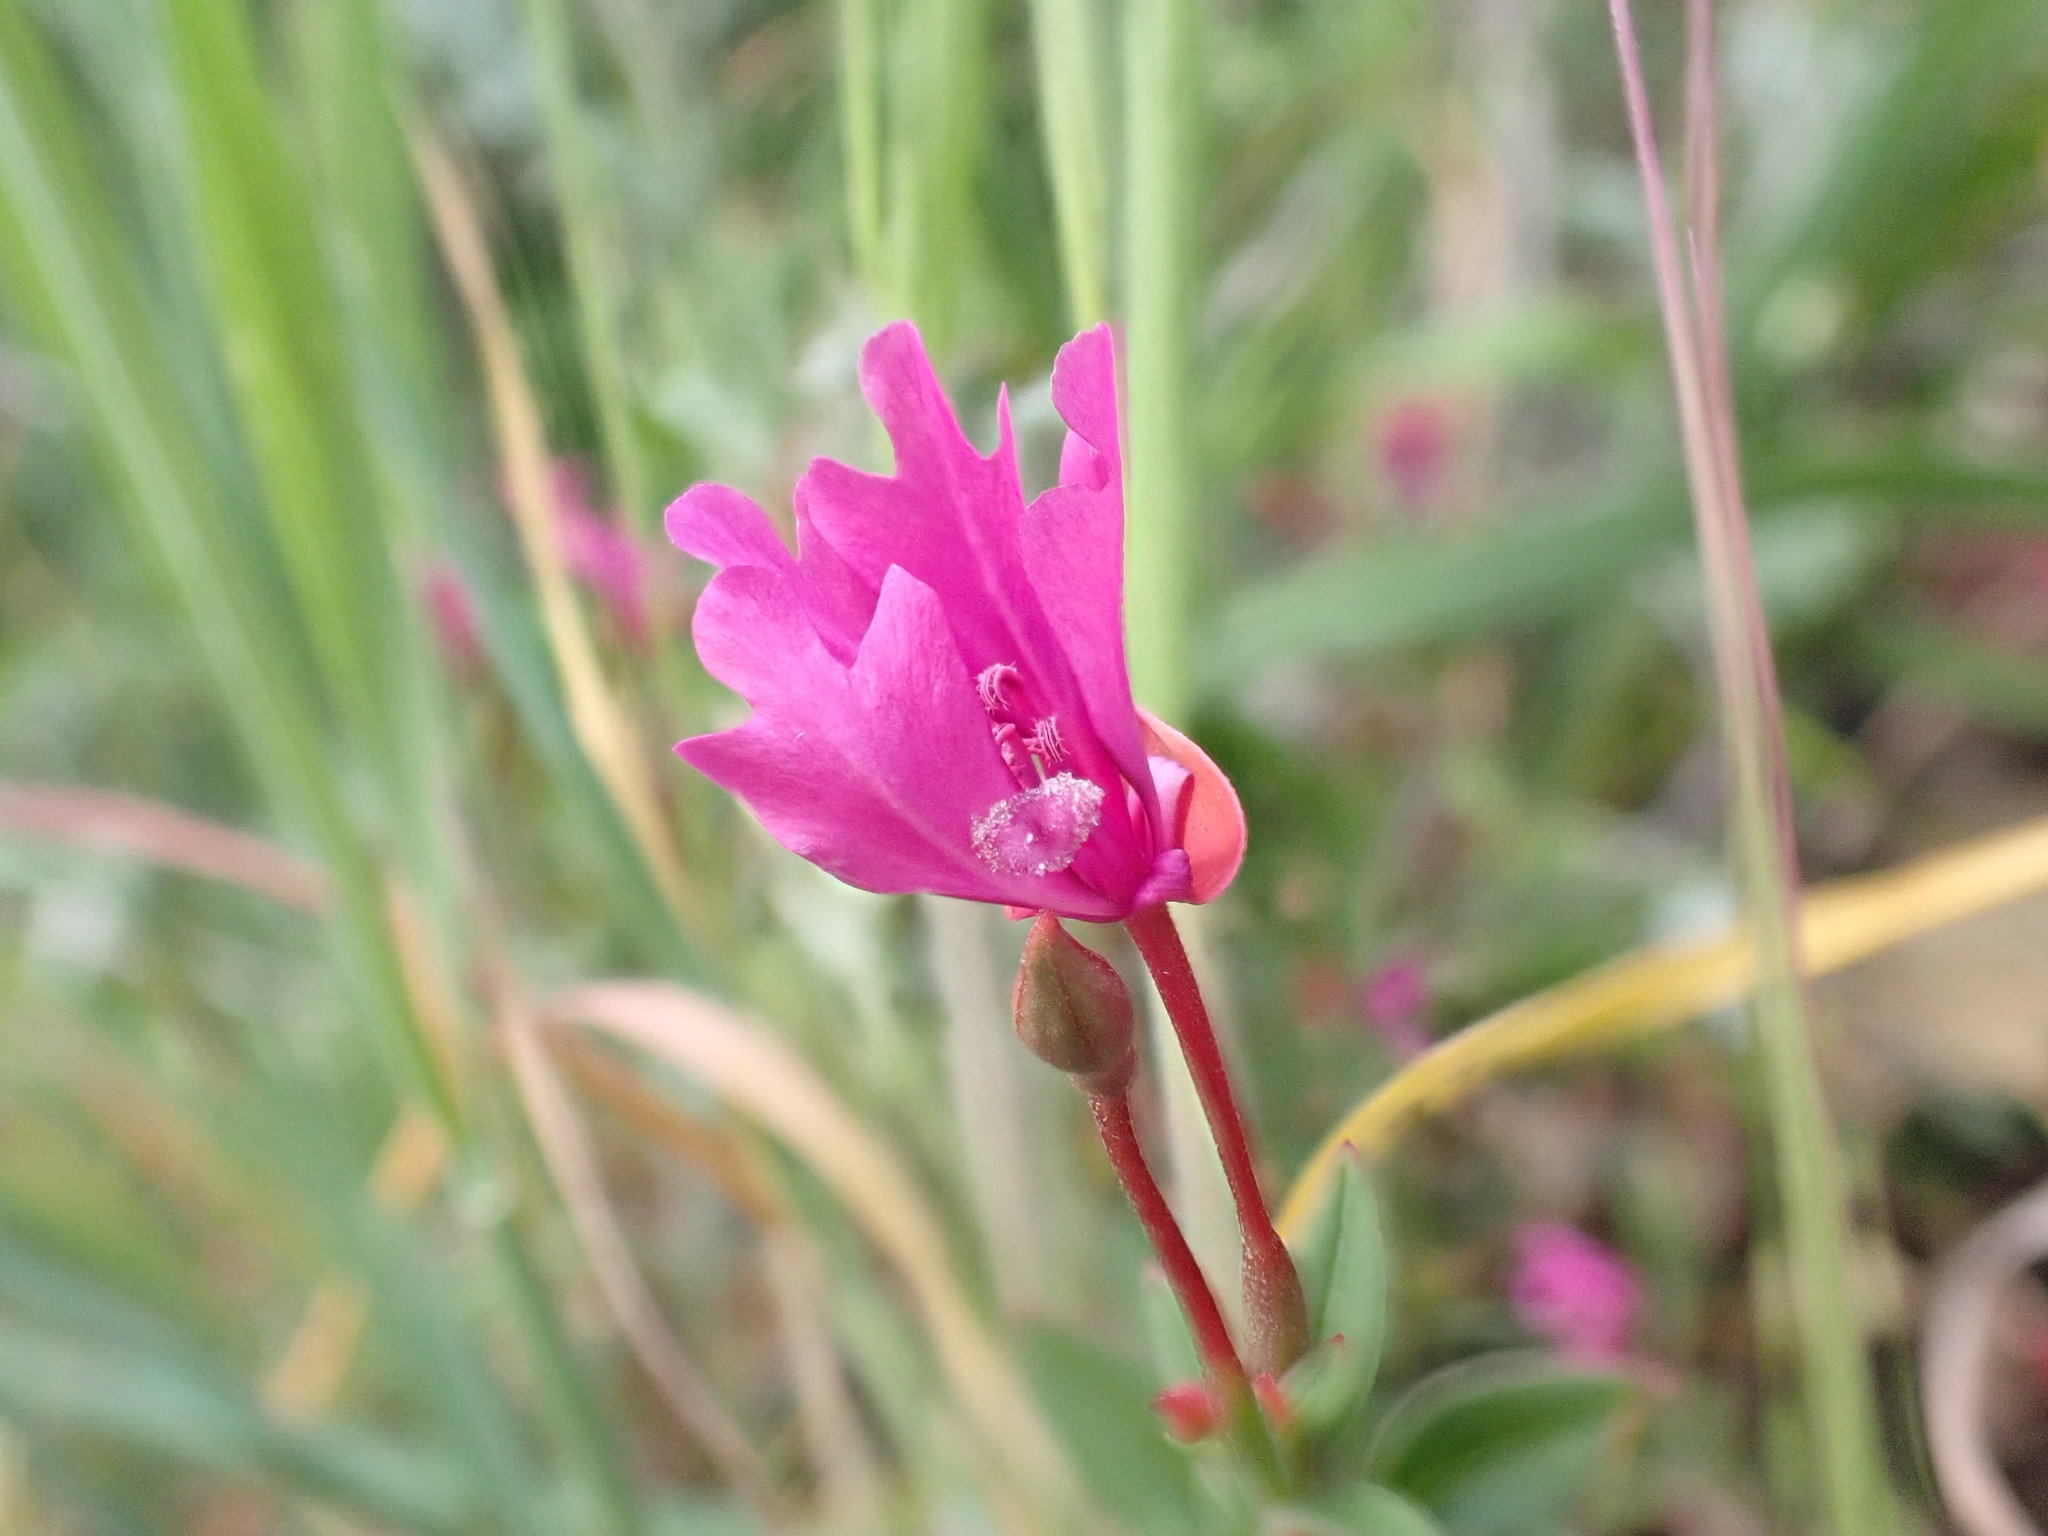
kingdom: Plantae
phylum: Tracheophyta
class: Magnoliopsida
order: Myrtales
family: Onagraceae
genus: Clarkia
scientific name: Clarkia concinna
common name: Red-ribbons
